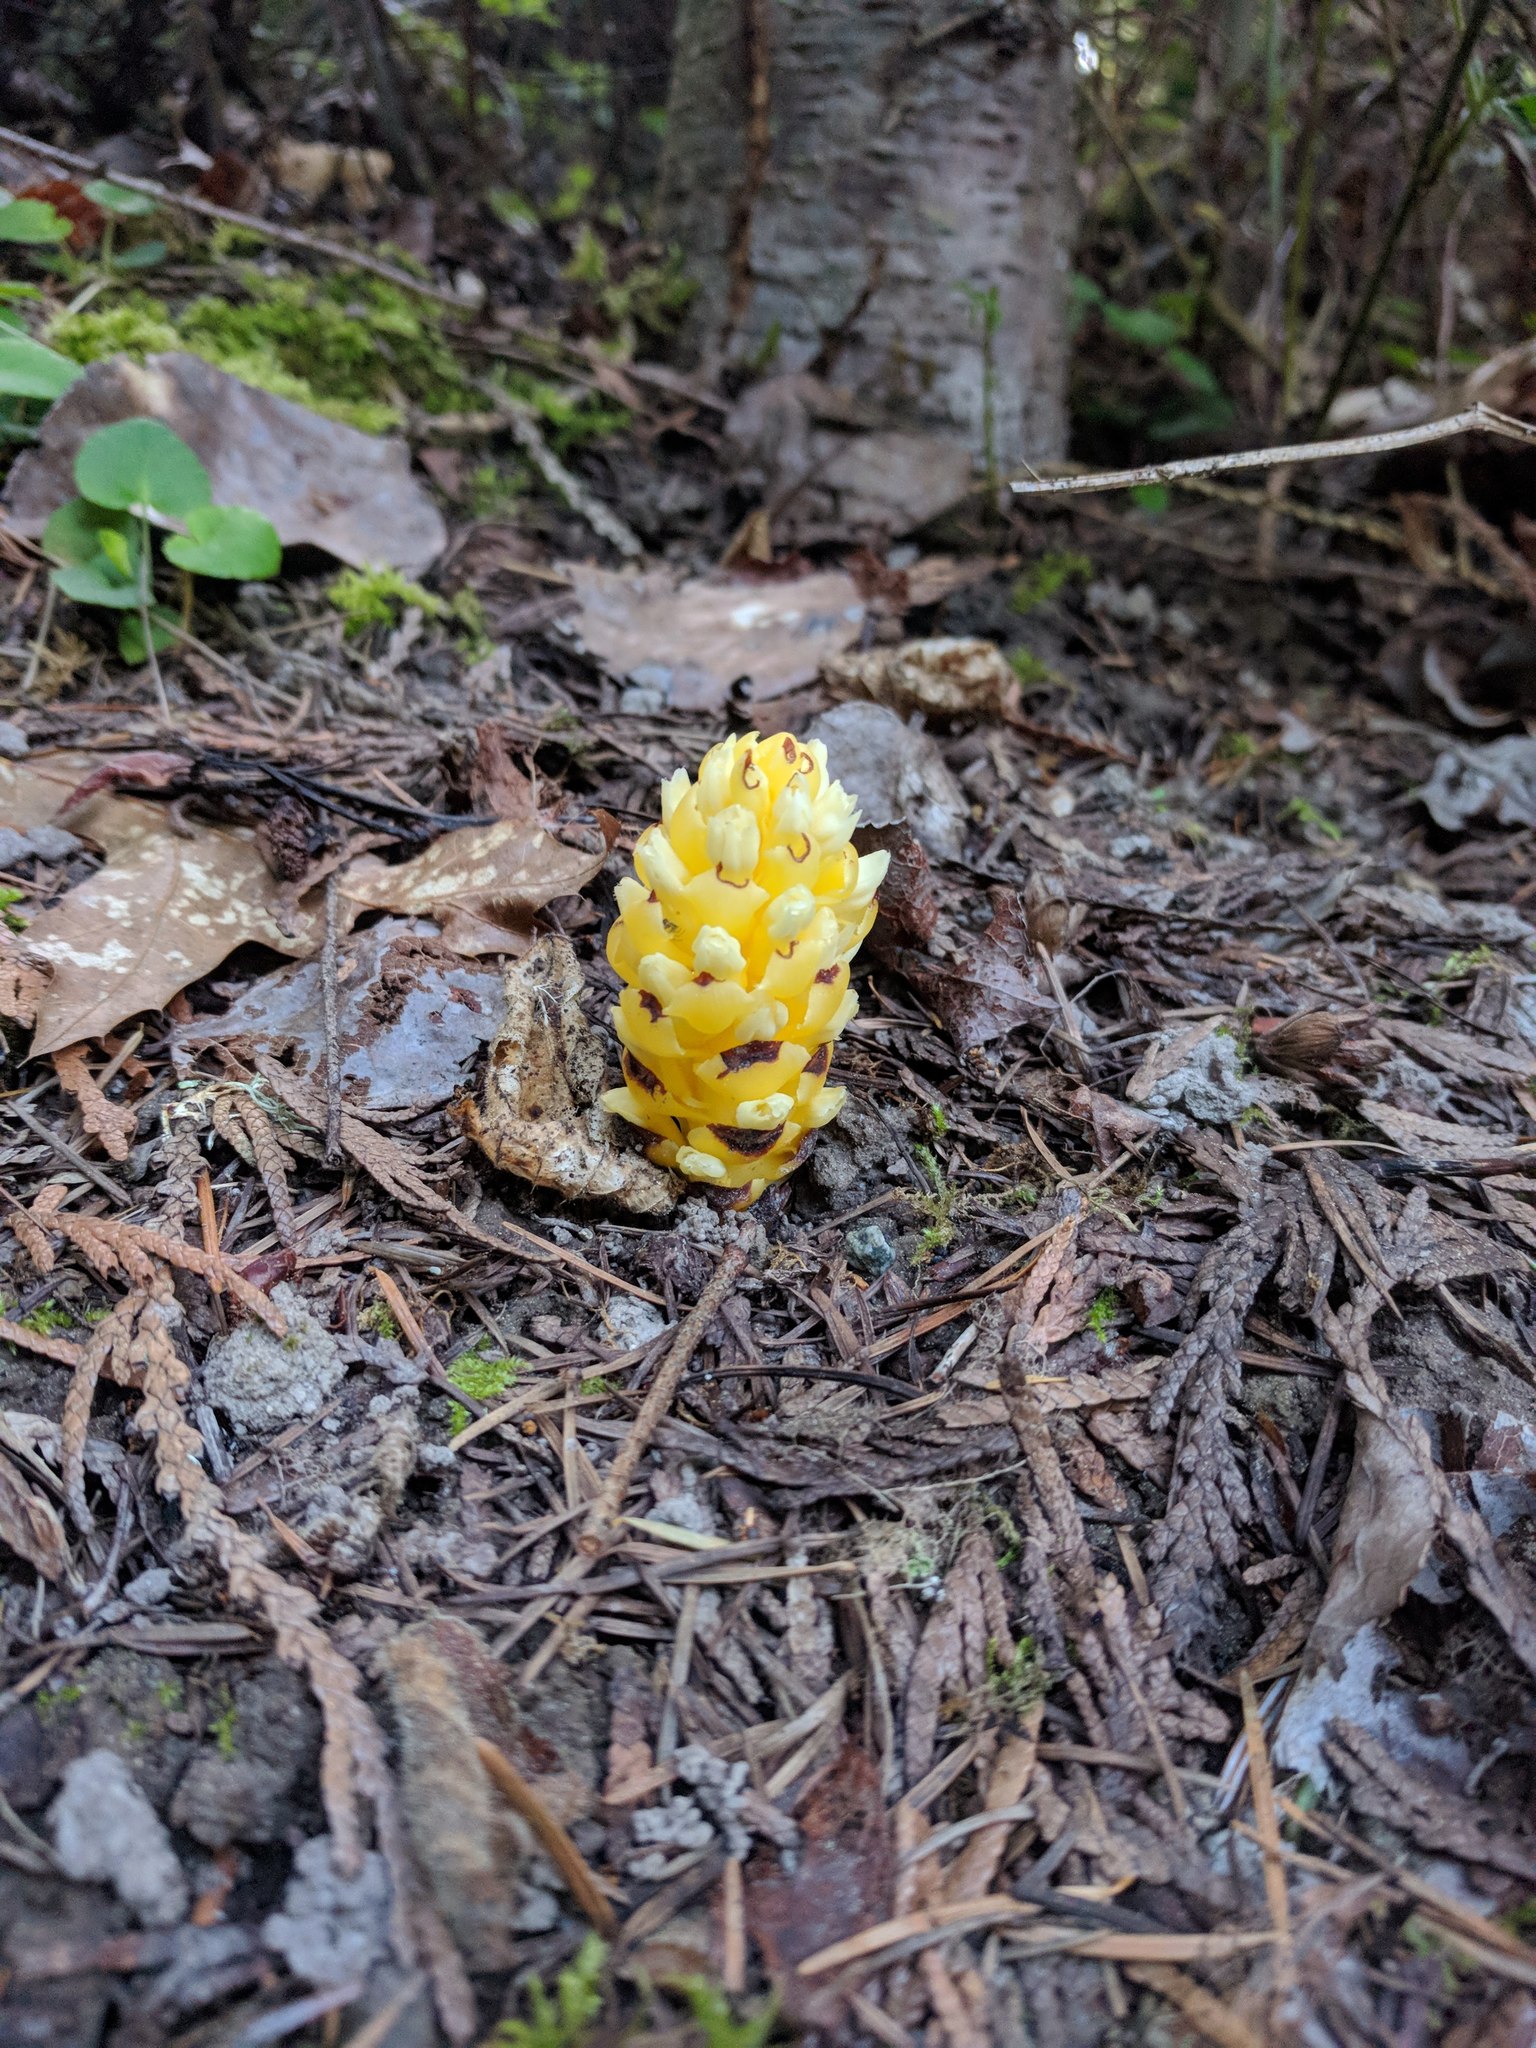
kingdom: Plantae
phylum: Tracheophyta
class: Magnoliopsida
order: Lamiales
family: Orobanchaceae
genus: Kopsiopsis
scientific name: Kopsiopsis hookeri
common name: Hooker's groundcone
